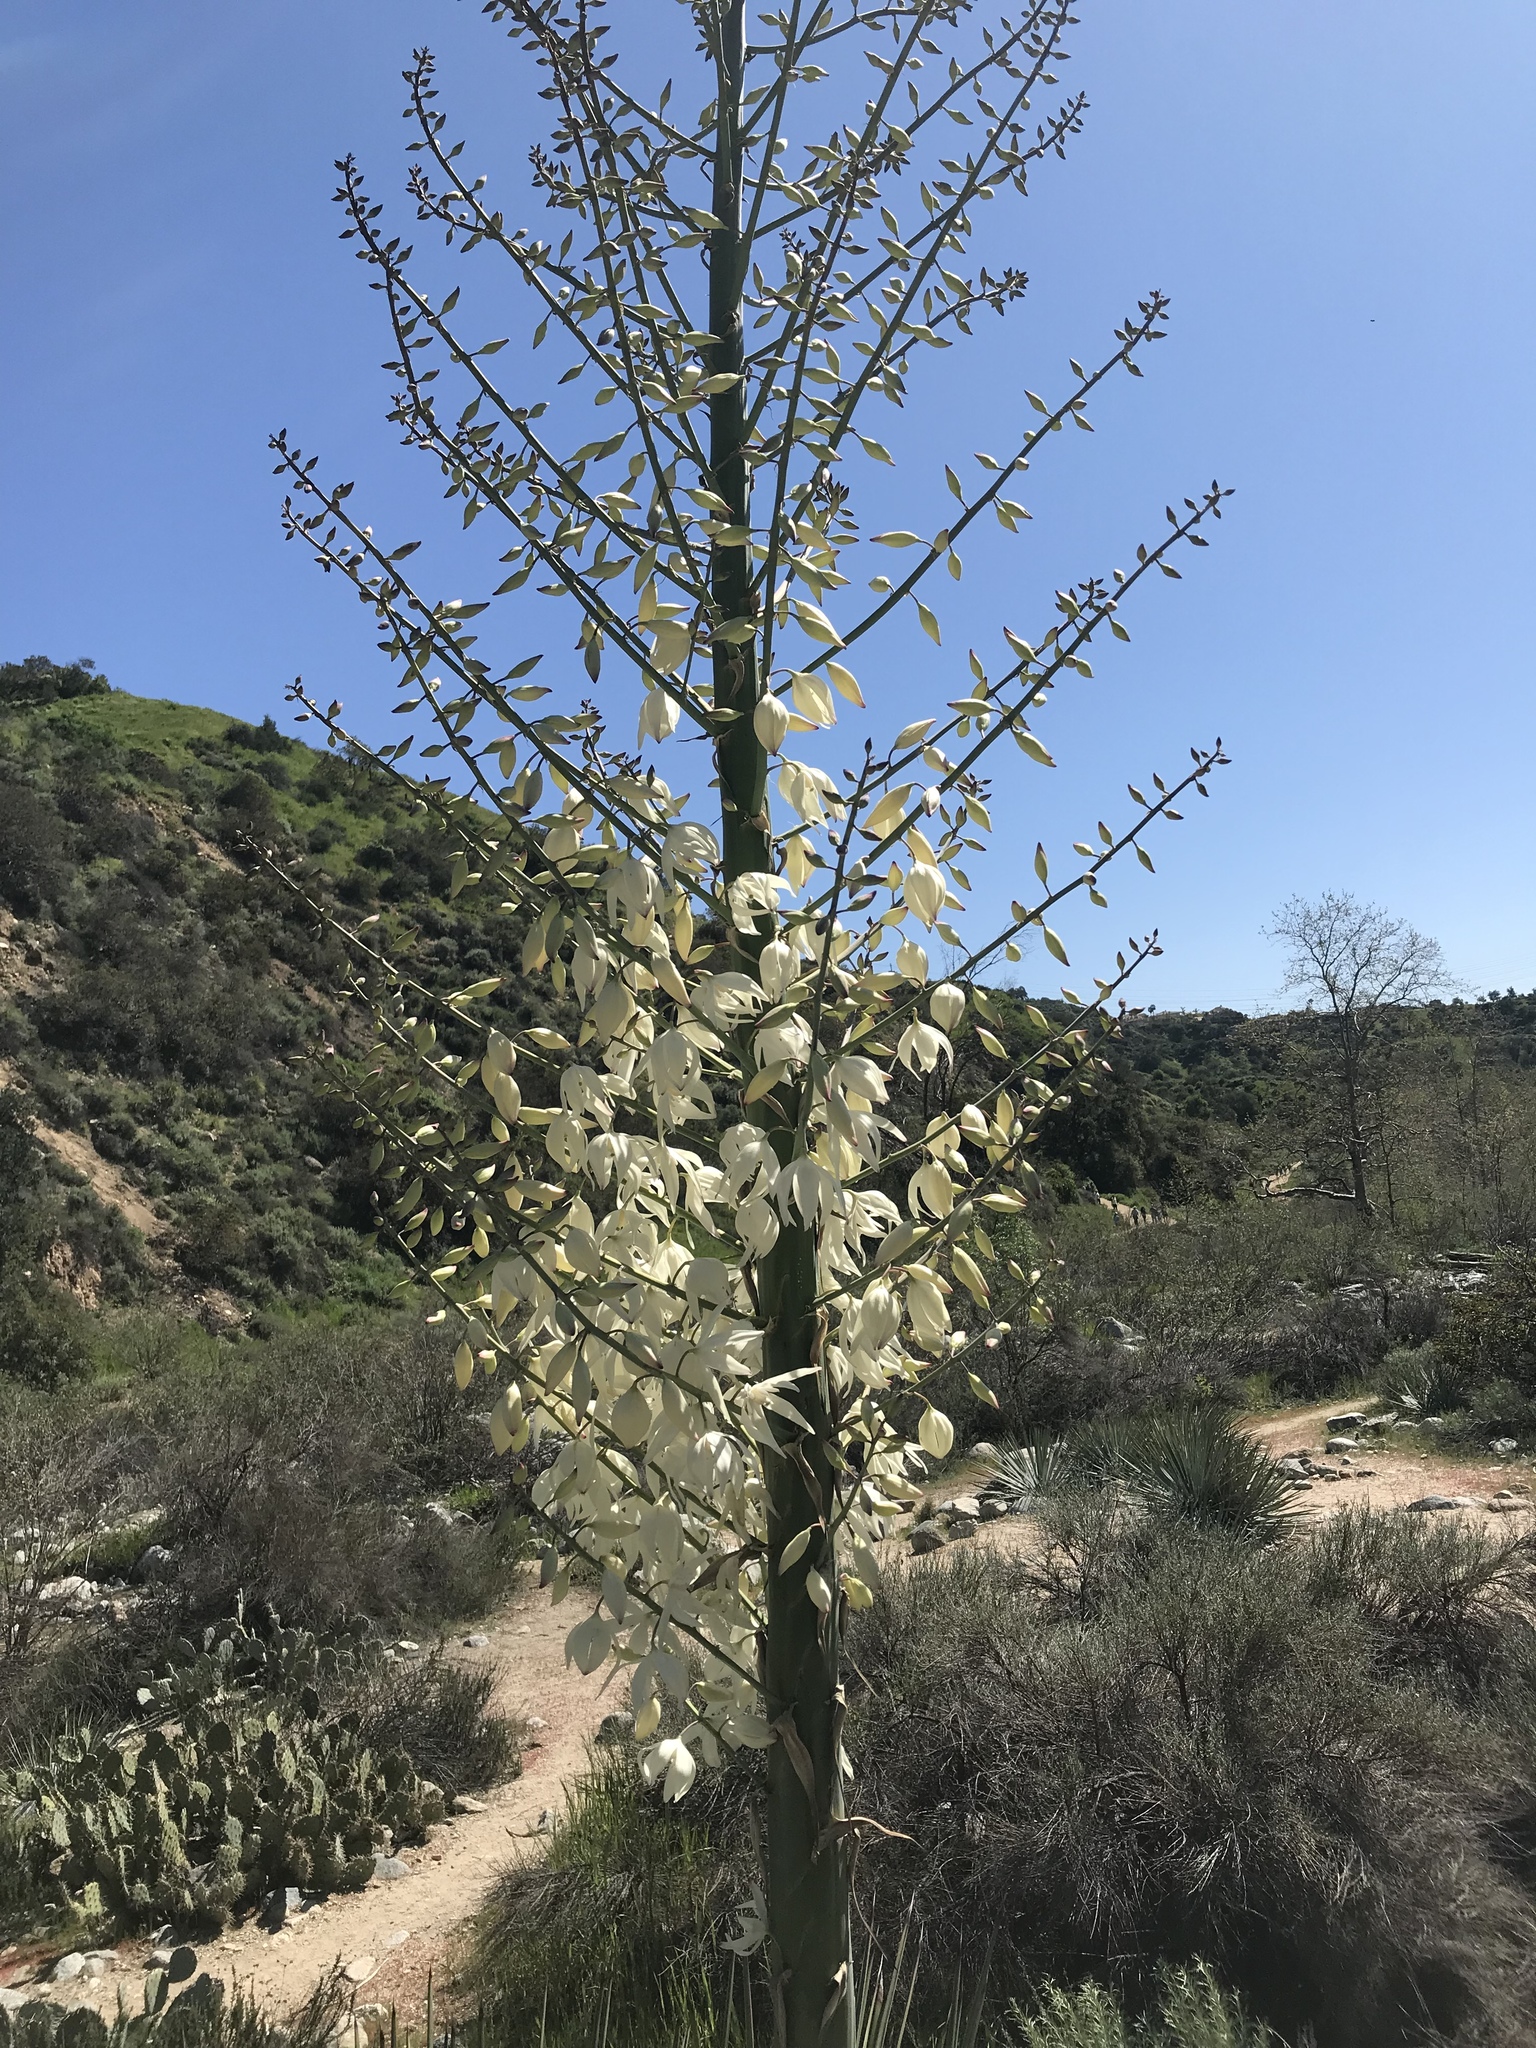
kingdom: Plantae
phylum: Tracheophyta
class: Liliopsida
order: Asparagales
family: Asparagaceae
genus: Hesperoyucca
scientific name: Hesperoyucca whipplei
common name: Our lord's-candle
